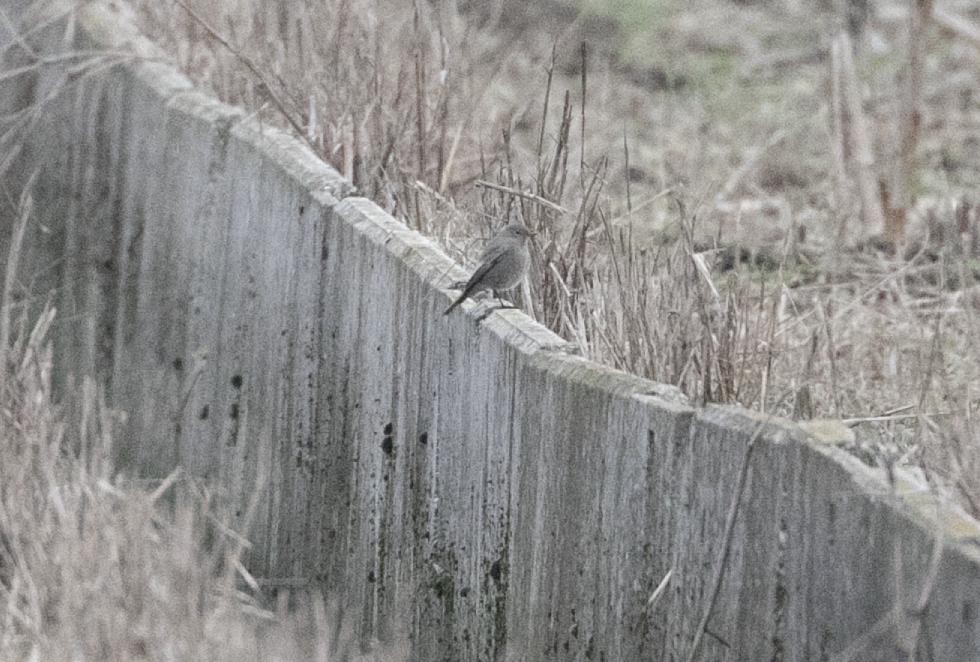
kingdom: Animalia
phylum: Chordata
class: Aves
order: Passeriformes
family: Muscicapidae
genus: Phoenicurus
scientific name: Phoenicurus ochruros
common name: Black redstart
